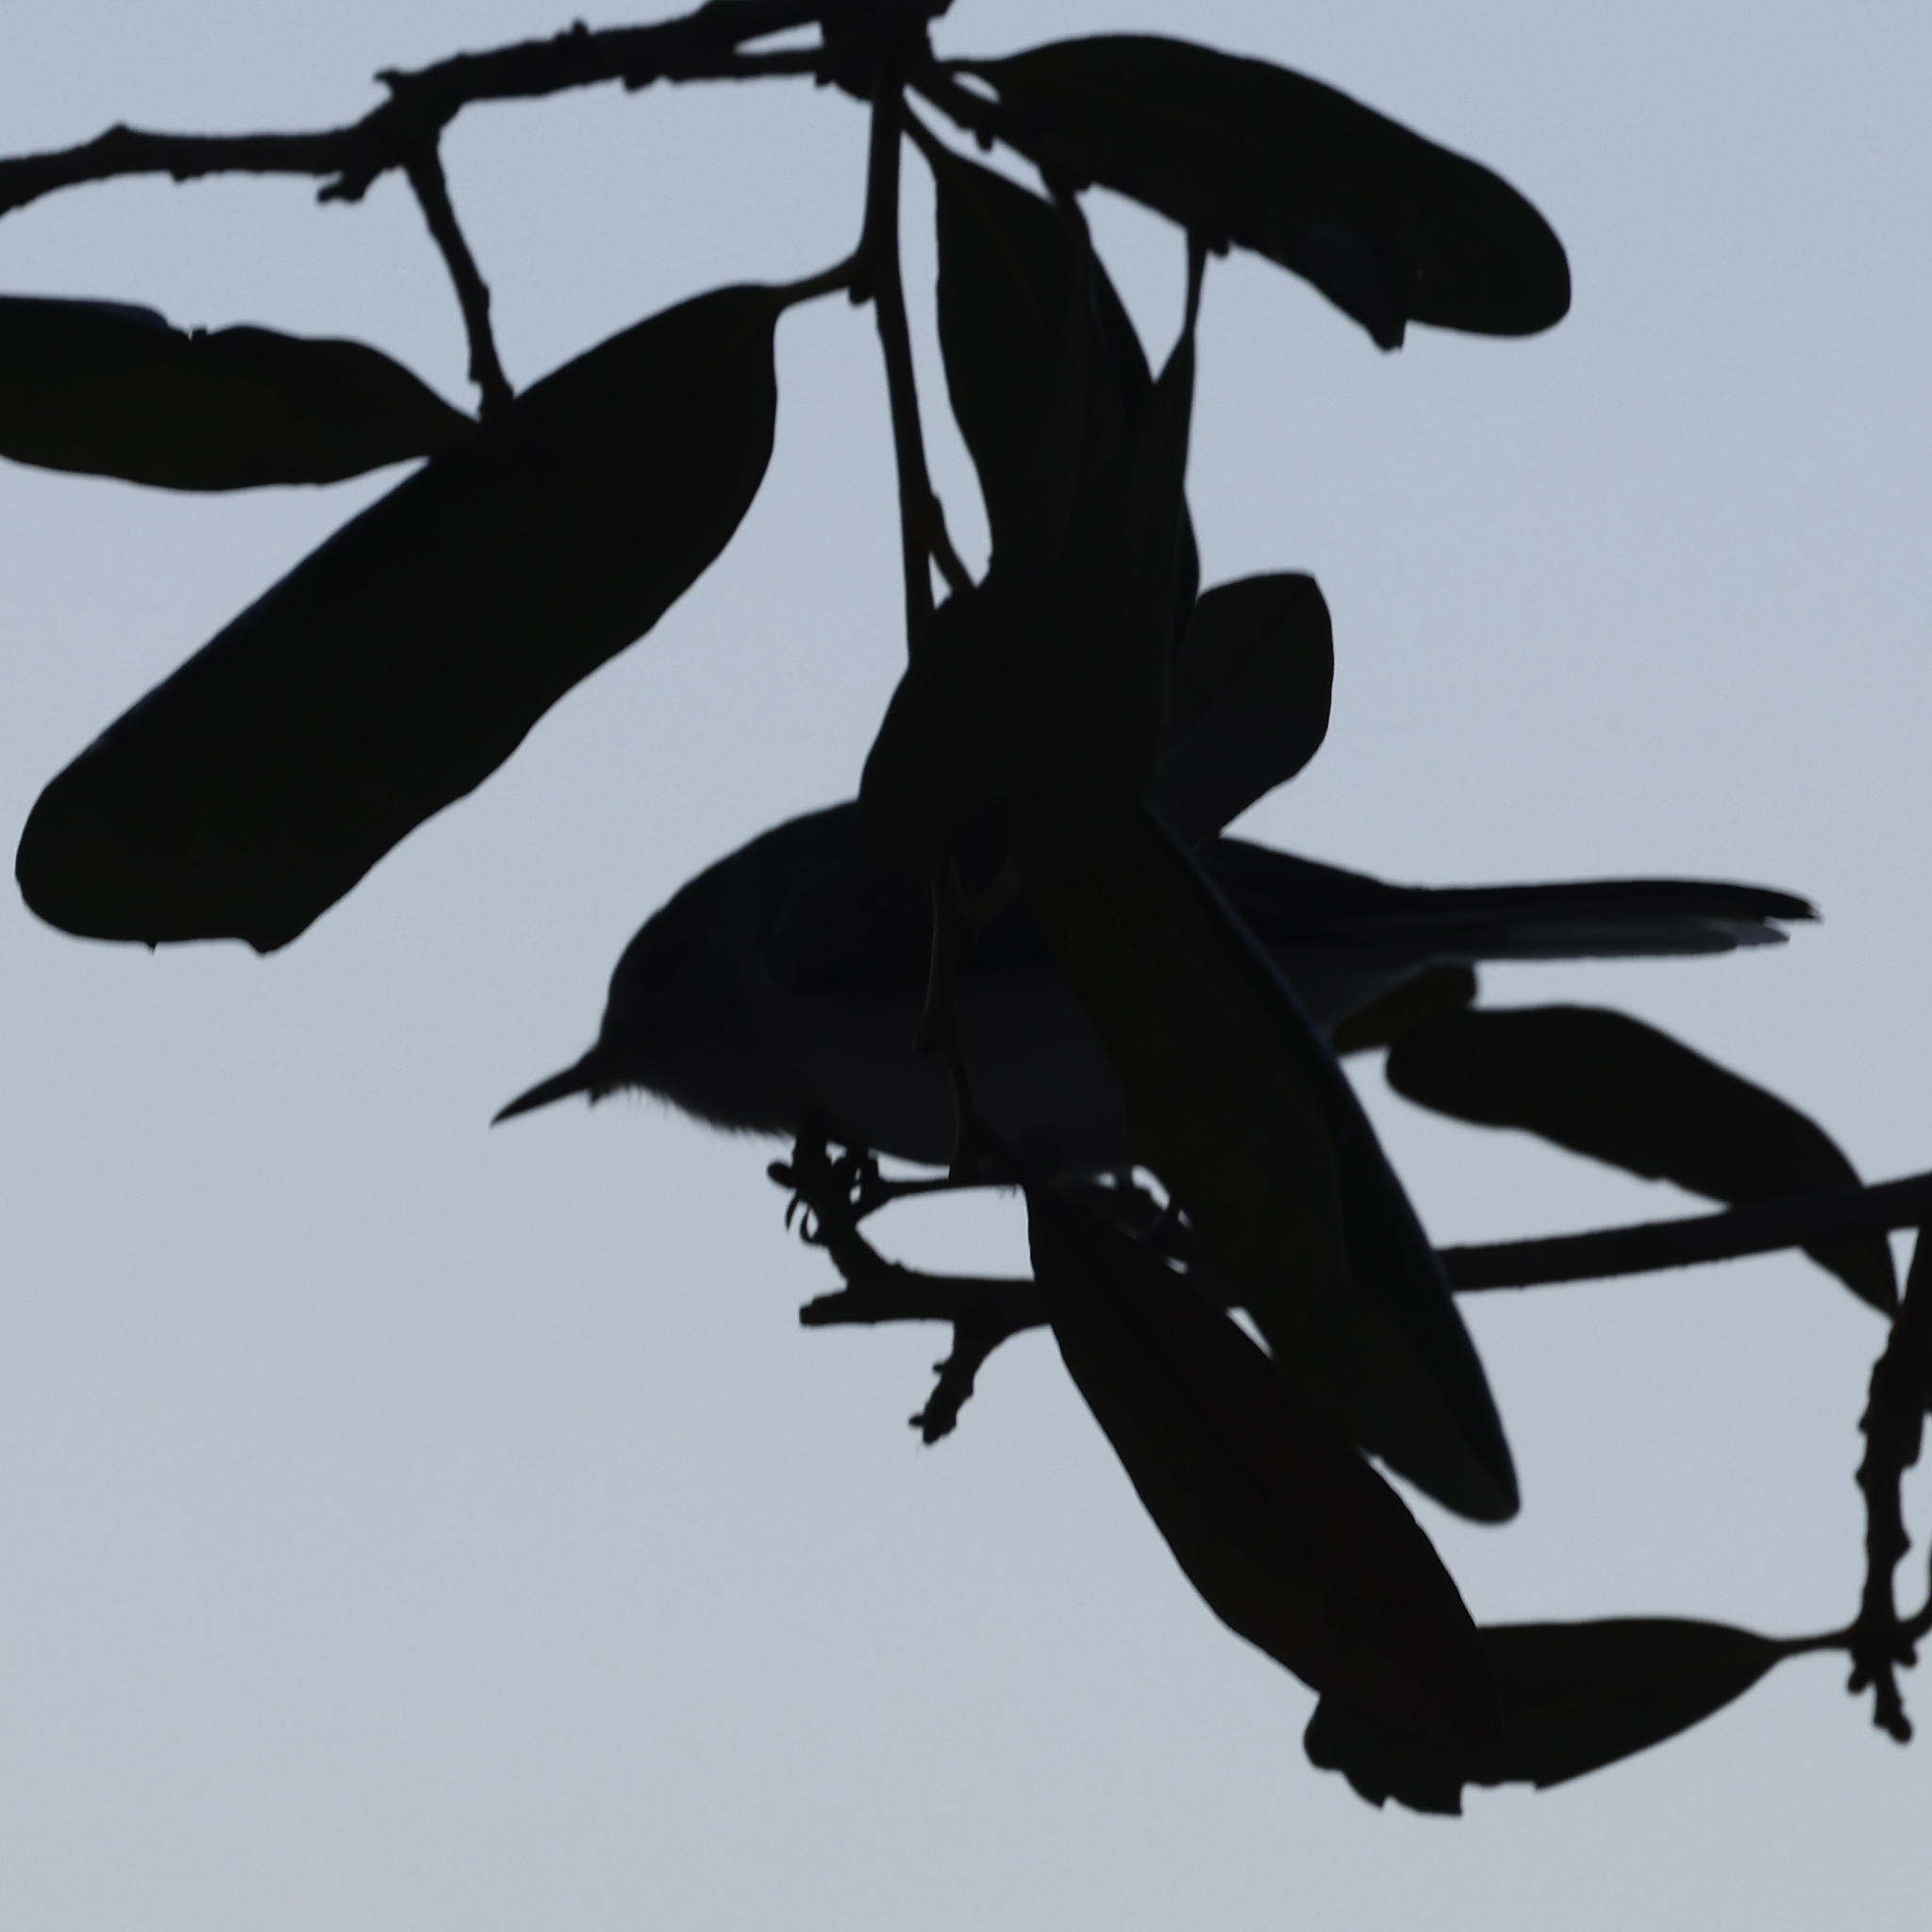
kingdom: Animalia
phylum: Chordata
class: Aves
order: Passeriformes
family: Polioptilidae
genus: Polioptila
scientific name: Polioptila caerulea
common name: Blue-gray gnatcatcher
